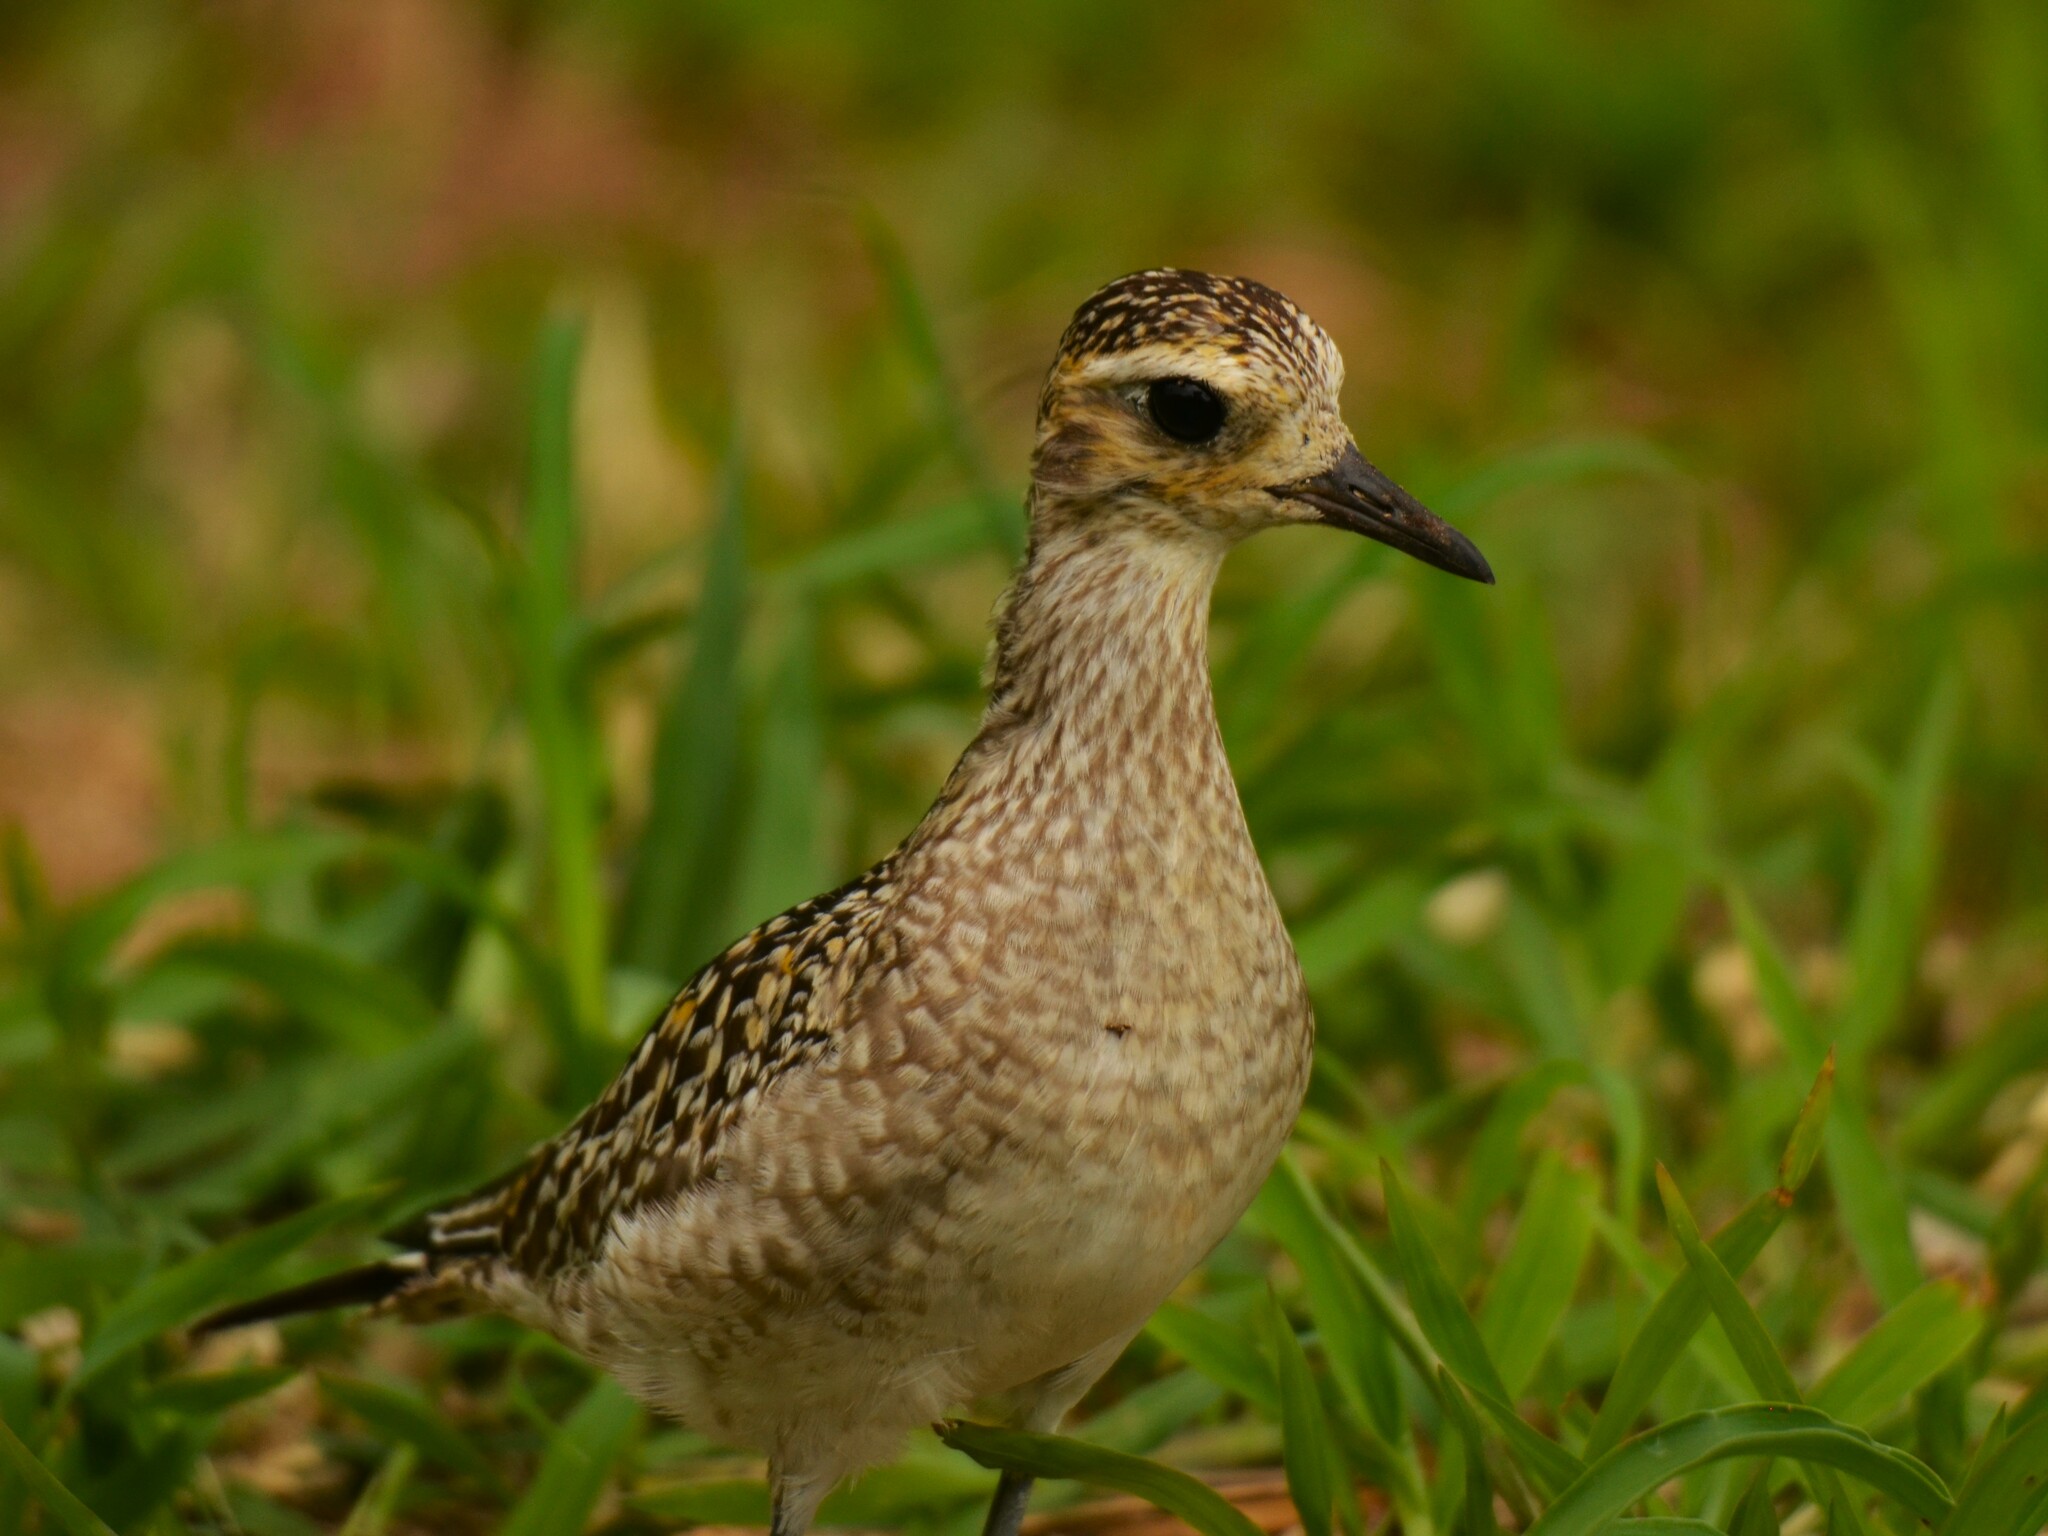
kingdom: Animalia
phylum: Chordata
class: Aves
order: Charadriiformes
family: Charadriidae
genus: Pluvialis
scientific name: Pluvialis fulva
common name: Pacific golden plover
